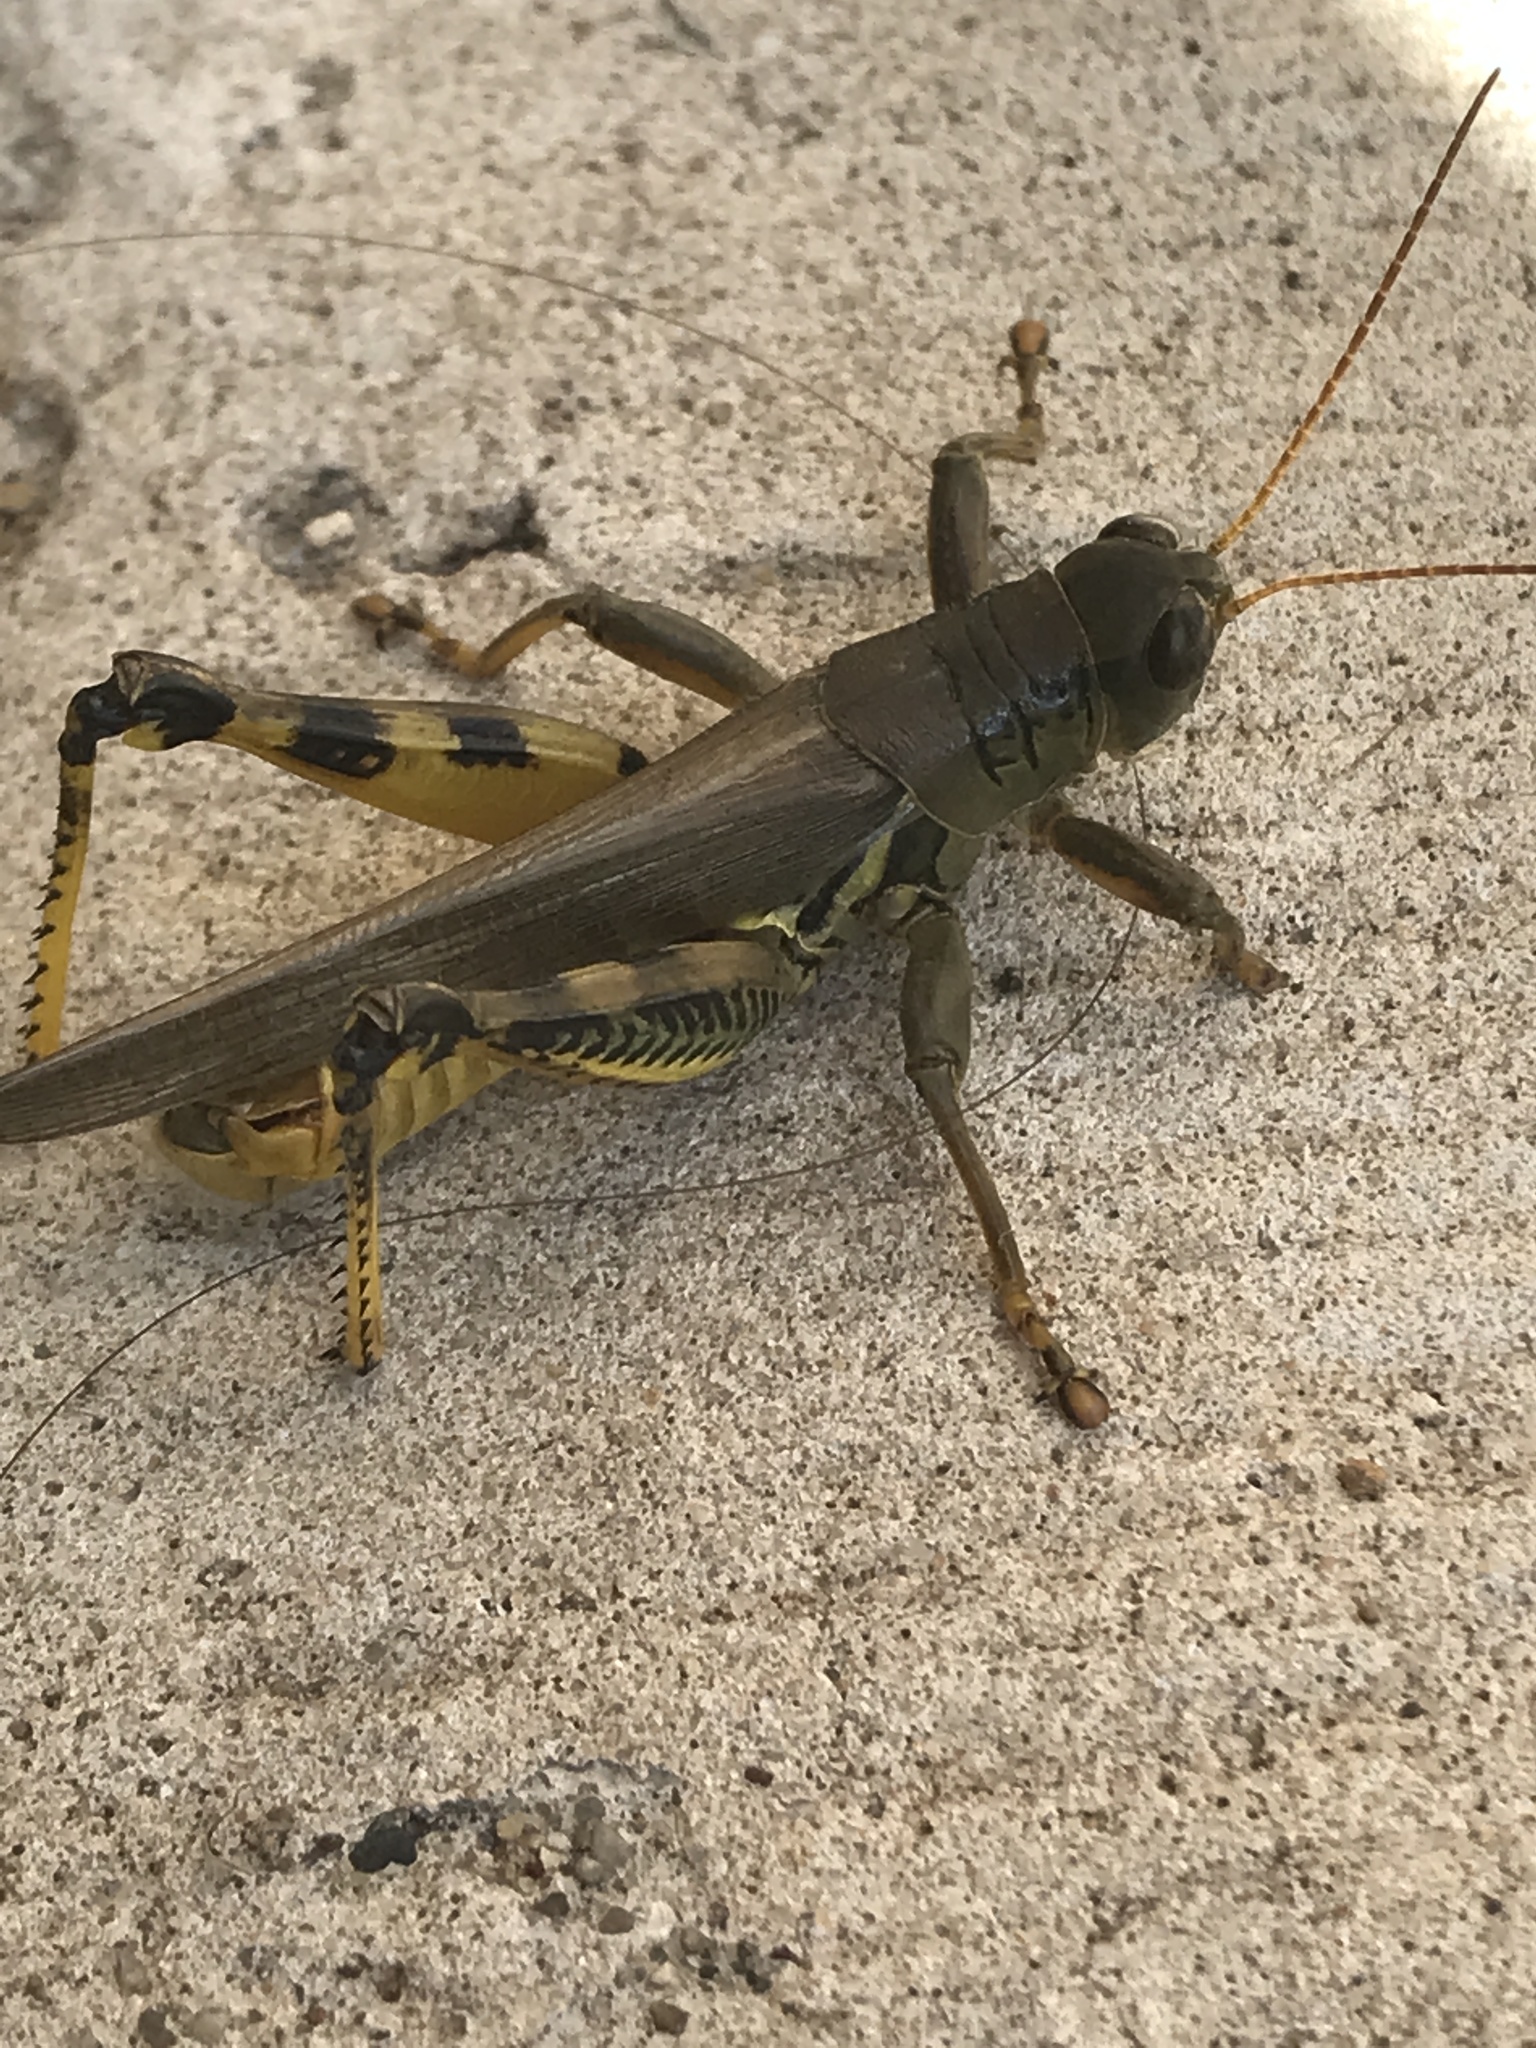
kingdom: Animalia
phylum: Arthropoda
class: Insecta
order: Orthoptera
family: Acrididae
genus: Melanoplus
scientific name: Melanoplus differentialis
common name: Differential grasshopper
